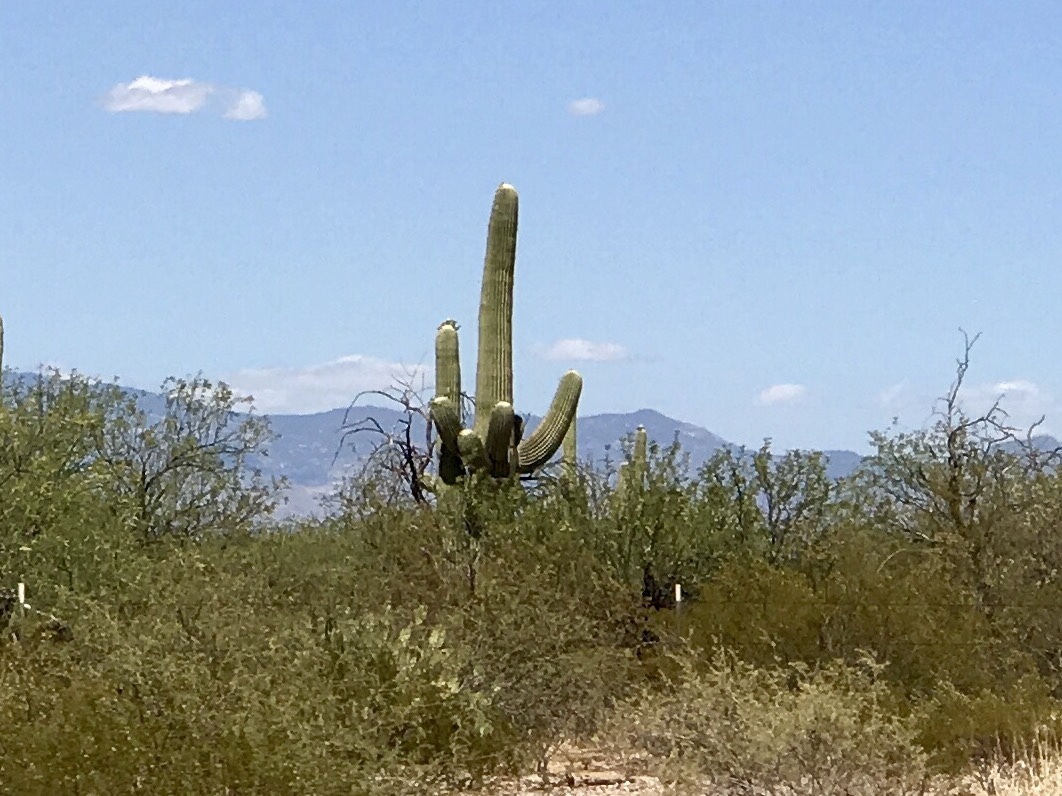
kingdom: Plantae
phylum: Tracheophyta
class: Magnoliopsida
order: Caryophyllales
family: Cactaceae
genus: Carnegiea
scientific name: Carnegiea gigantea
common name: Saguaro
